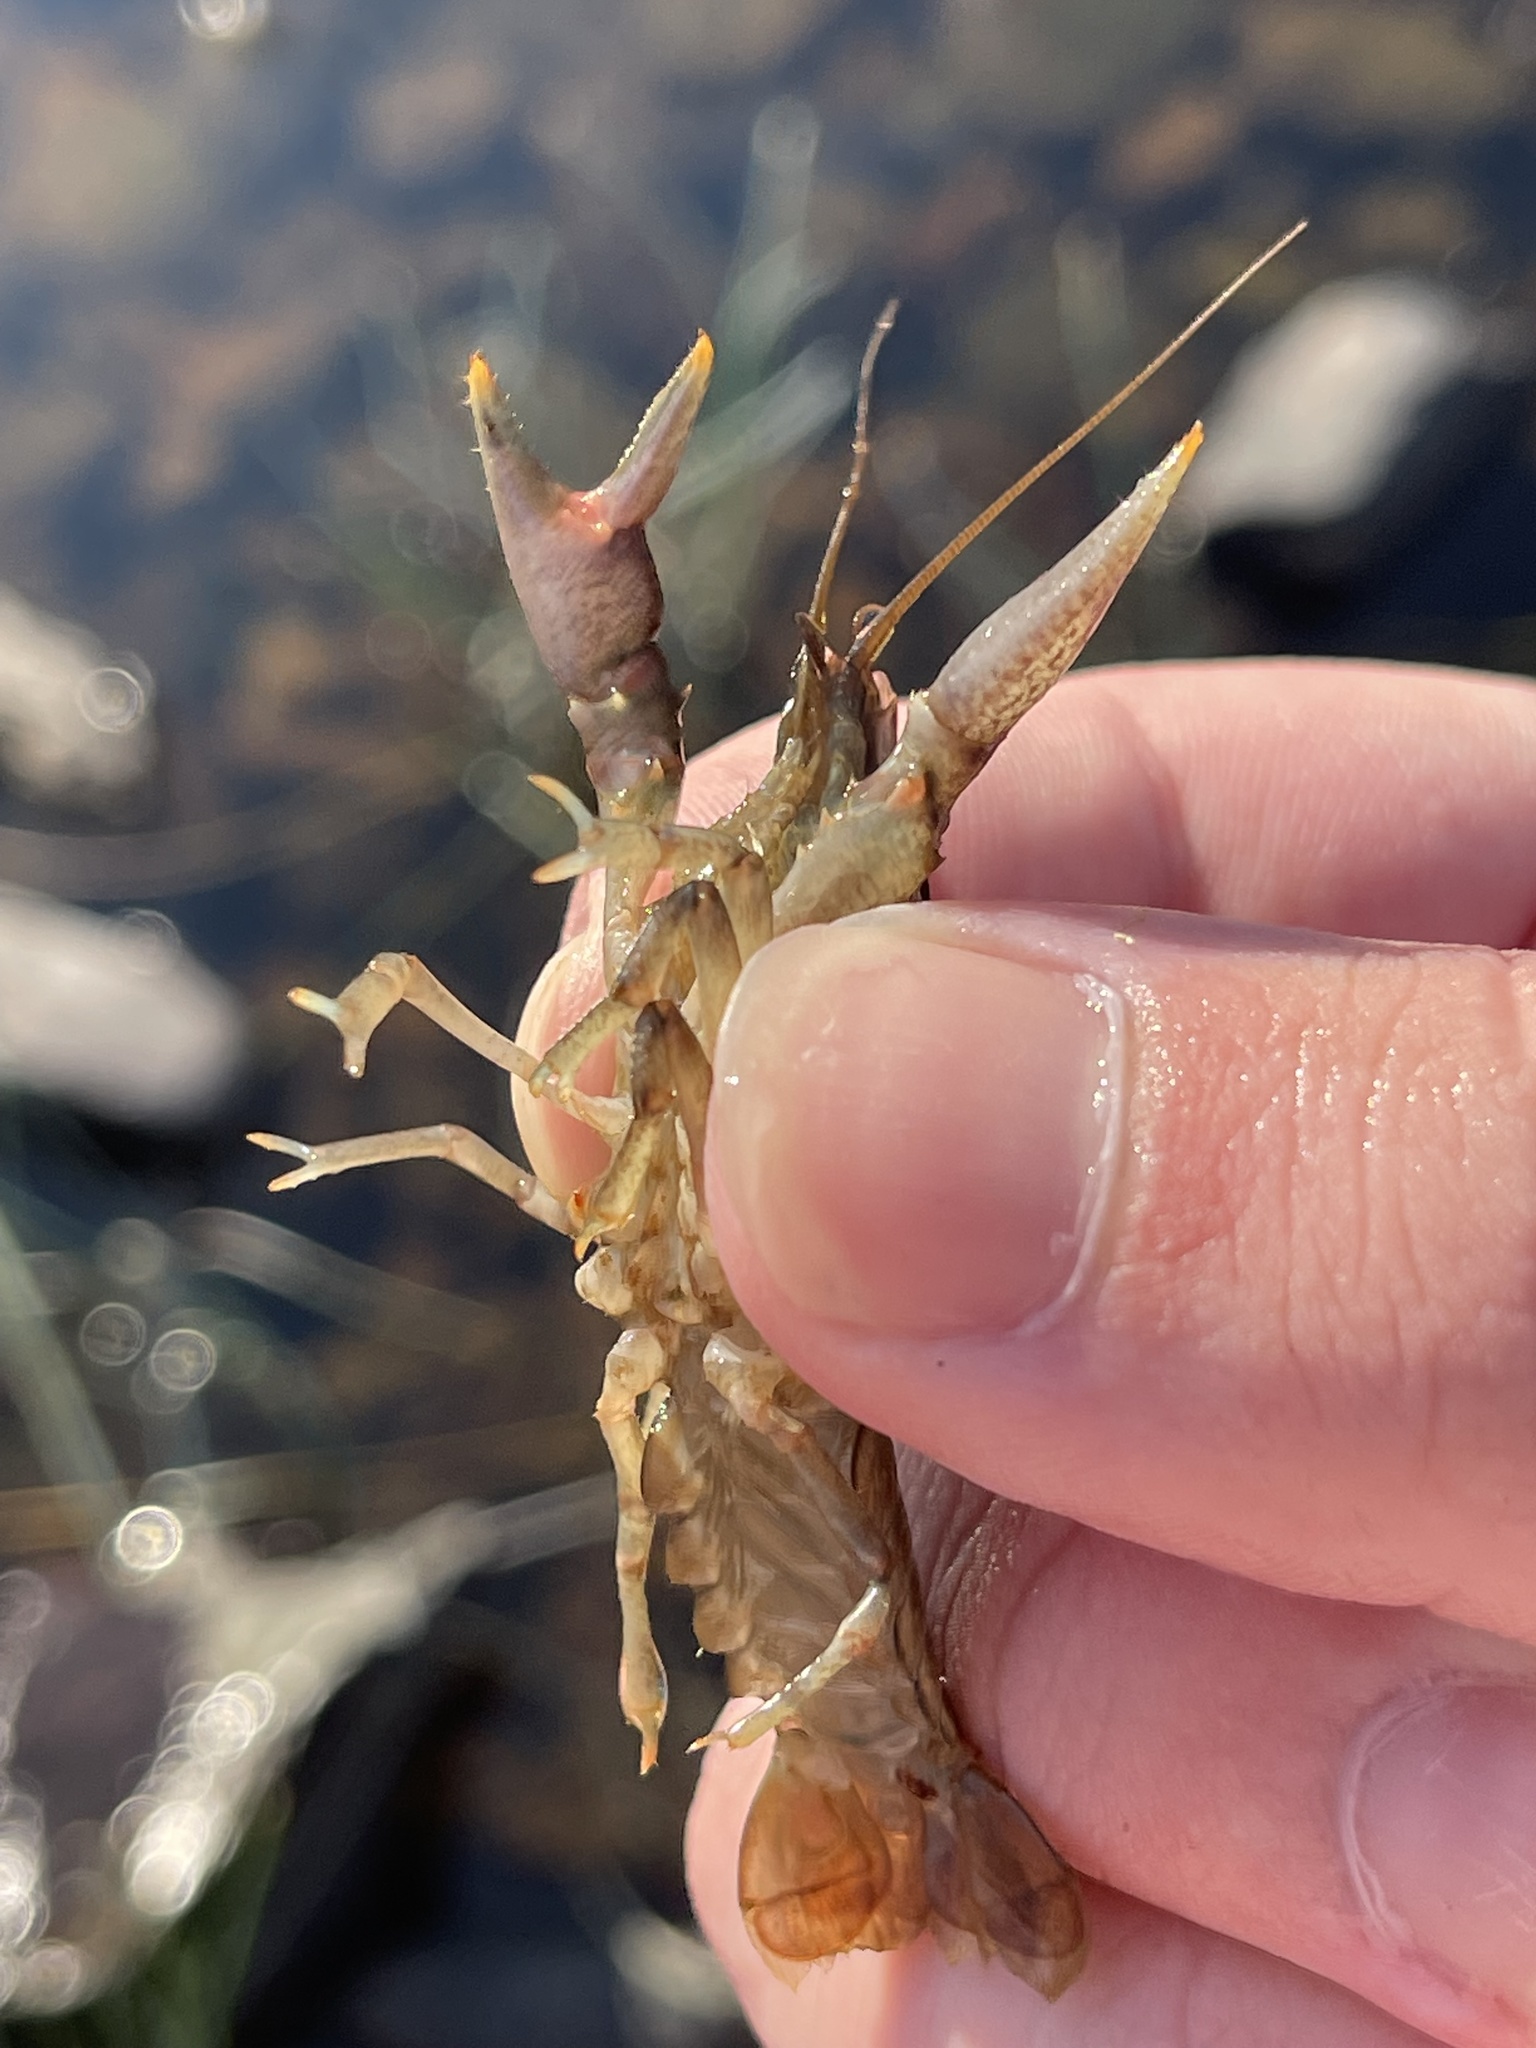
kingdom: Animalia
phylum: Arthropoda
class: Malacostraca
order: Decapoda
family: Cambaridae
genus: Faxonius
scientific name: Faxonius virilis
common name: Virile crayfish
